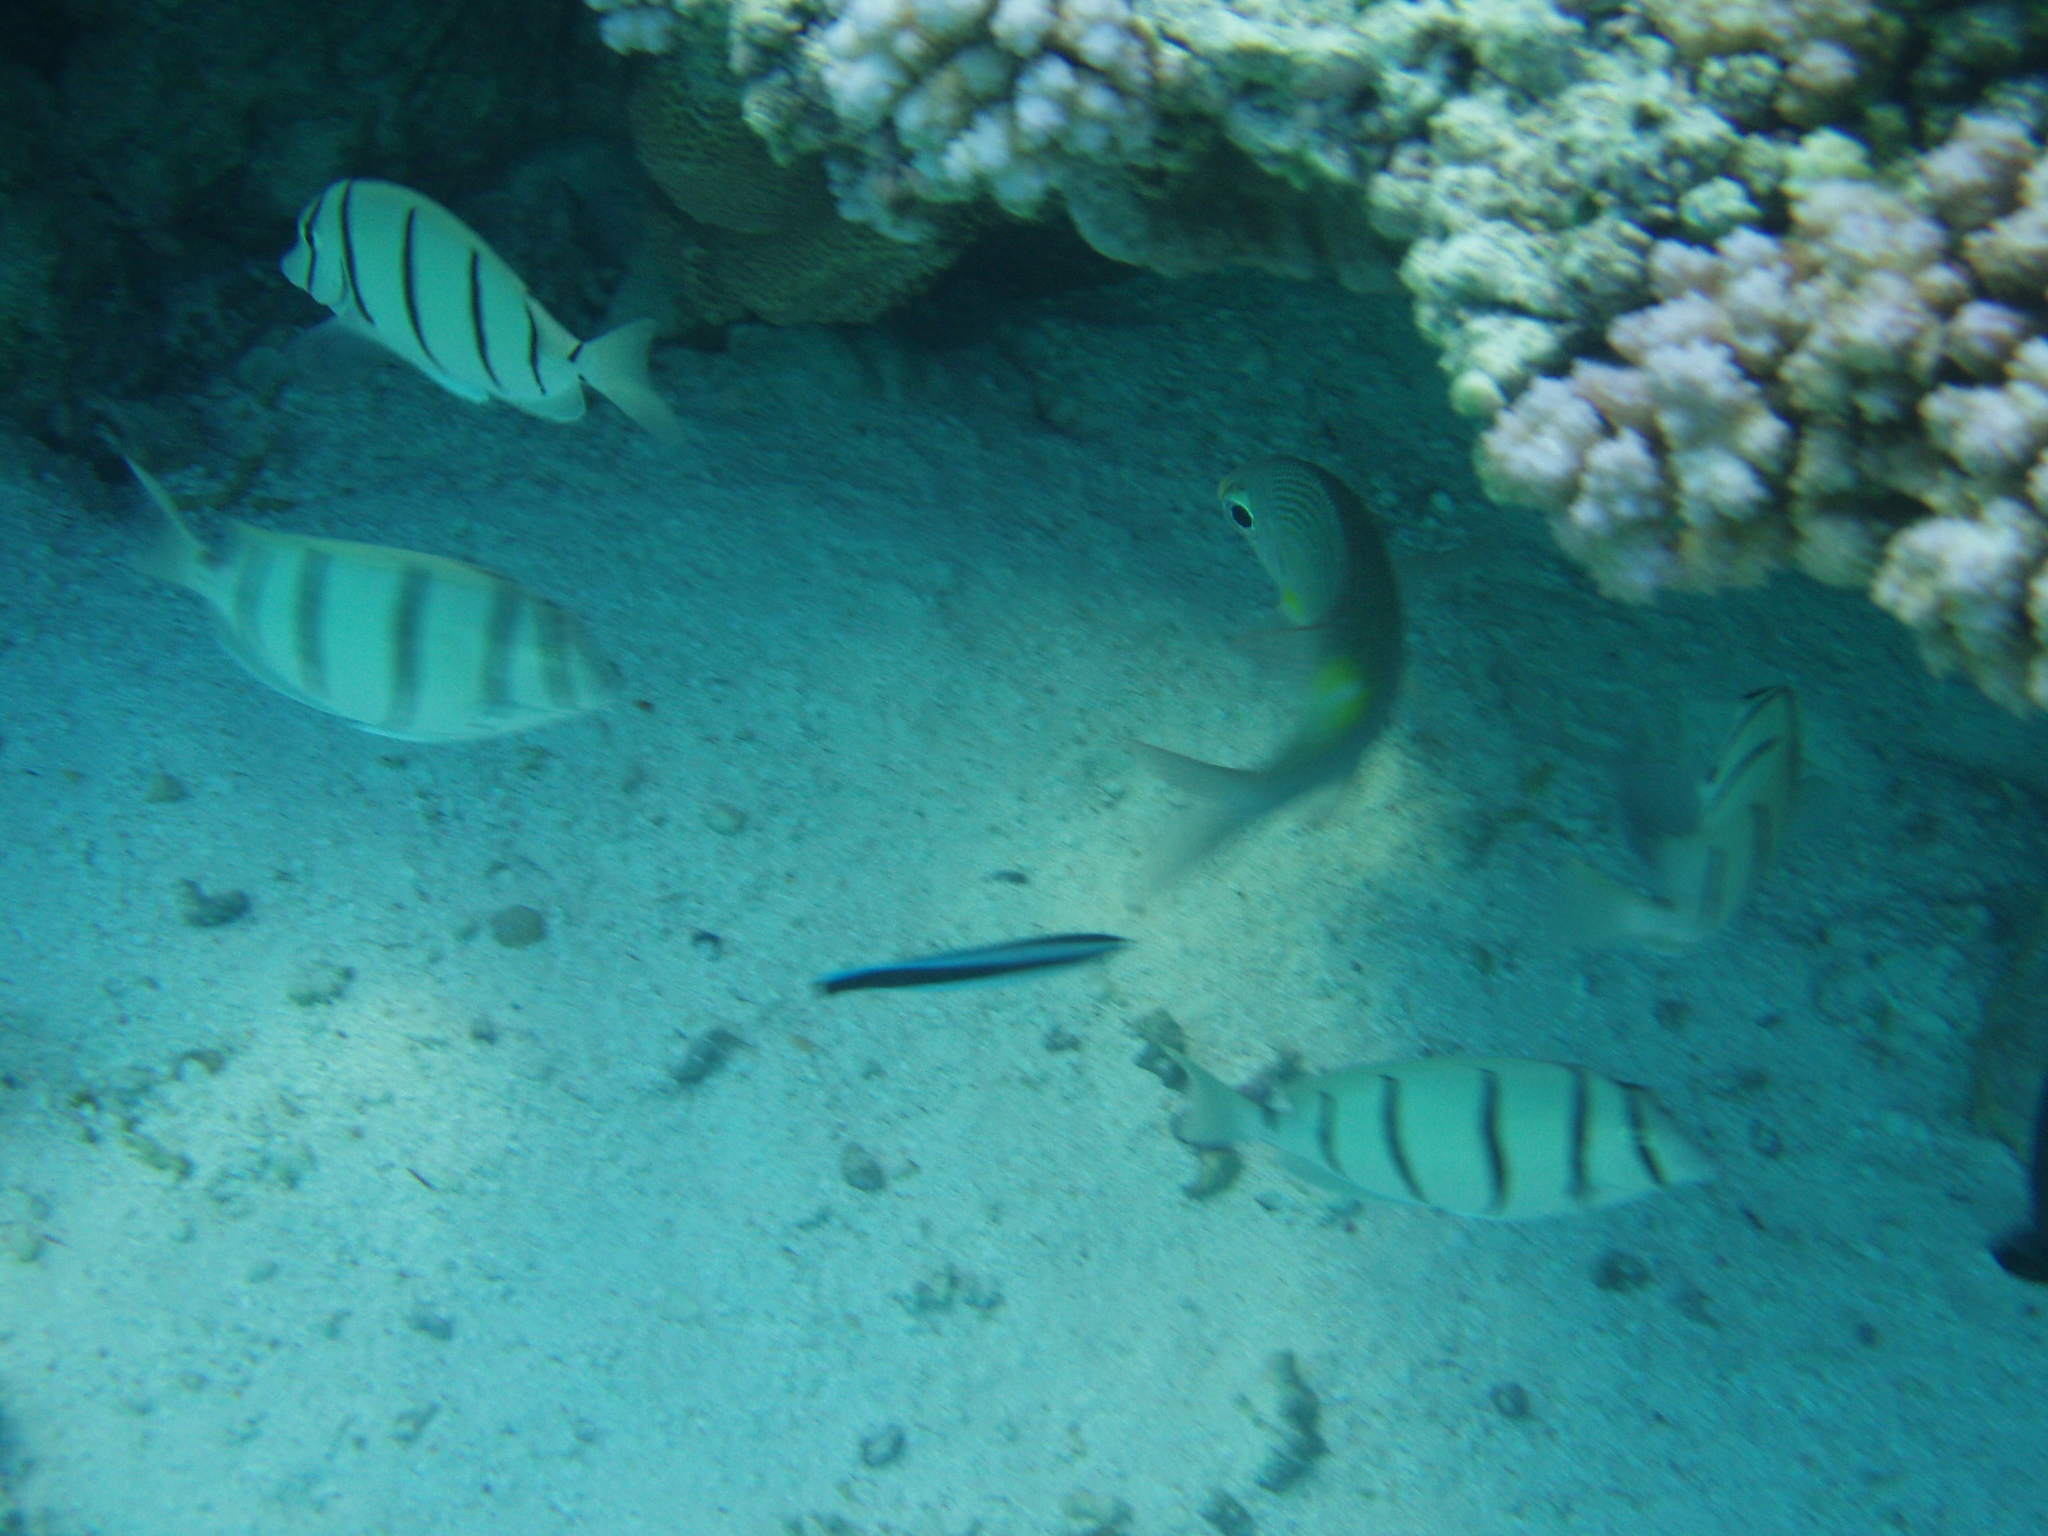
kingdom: Animalia
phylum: Chordata
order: Perciformes
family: Acanthuridae
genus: Acanthurus
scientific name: Acanthurus triostegus
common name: Convict surgeonfish
